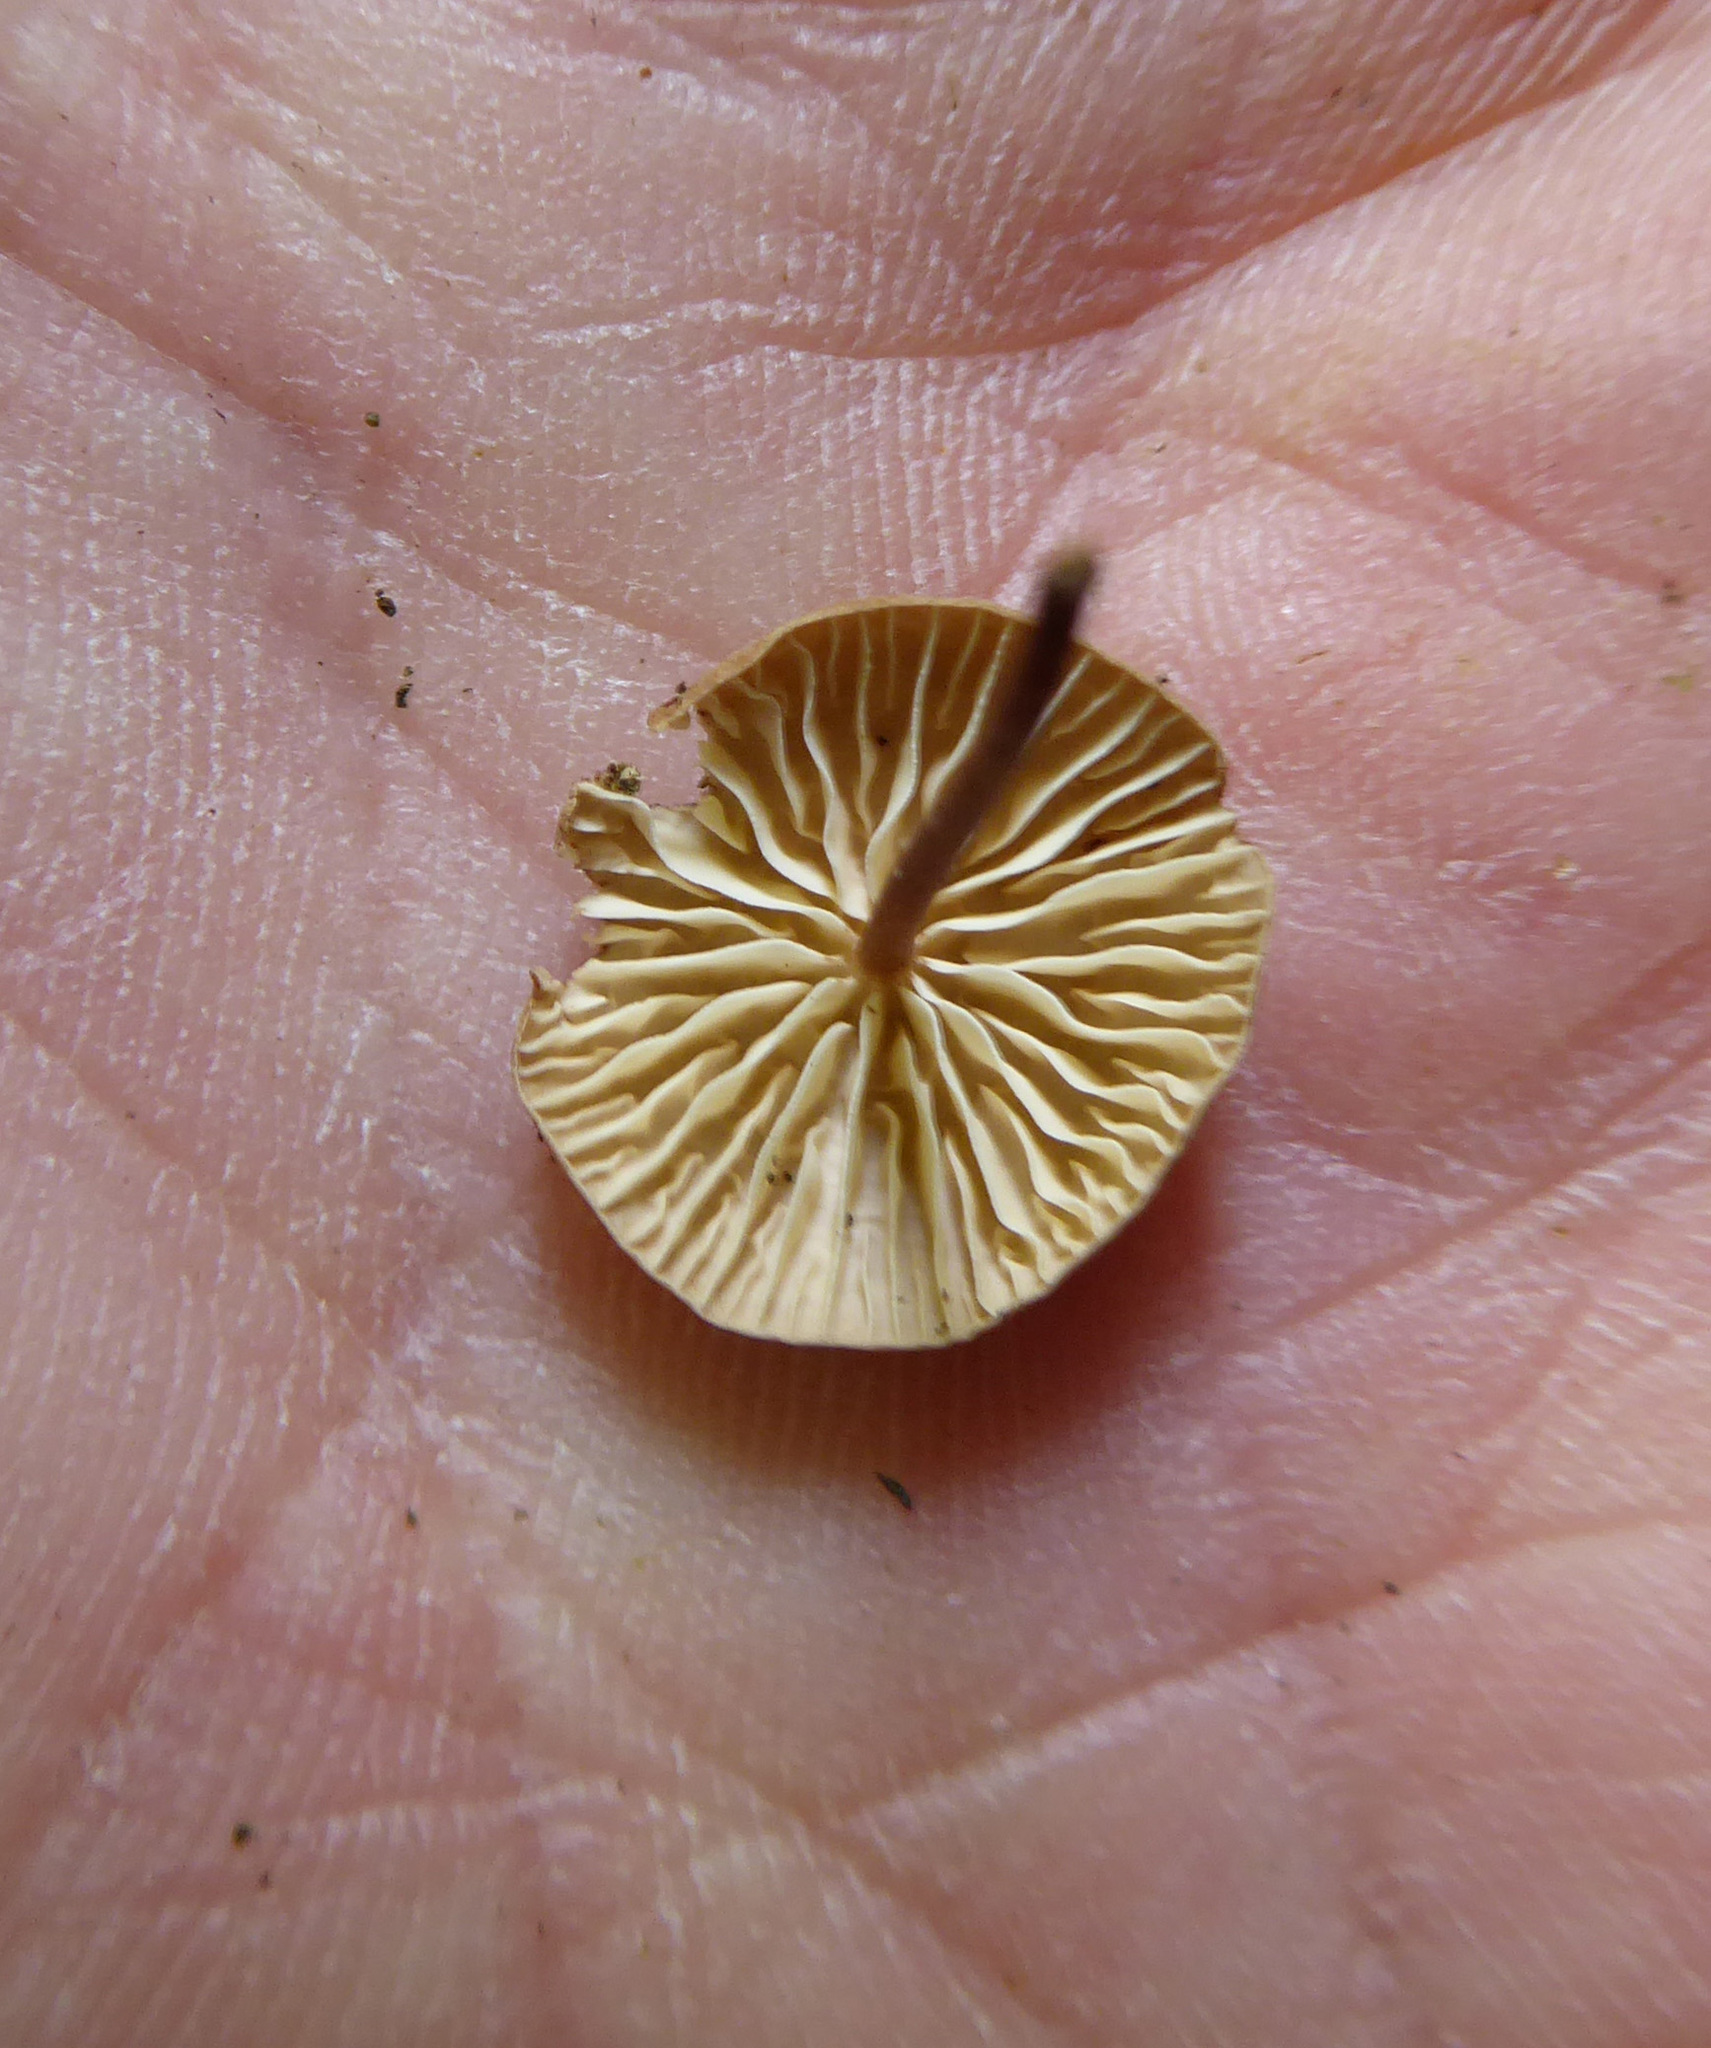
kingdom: Fungi
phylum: Basidiomycota
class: Agaricomycetes
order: Agaricales
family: Omphalotaceae
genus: Mycetinis
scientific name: Mycetinis curraniae
